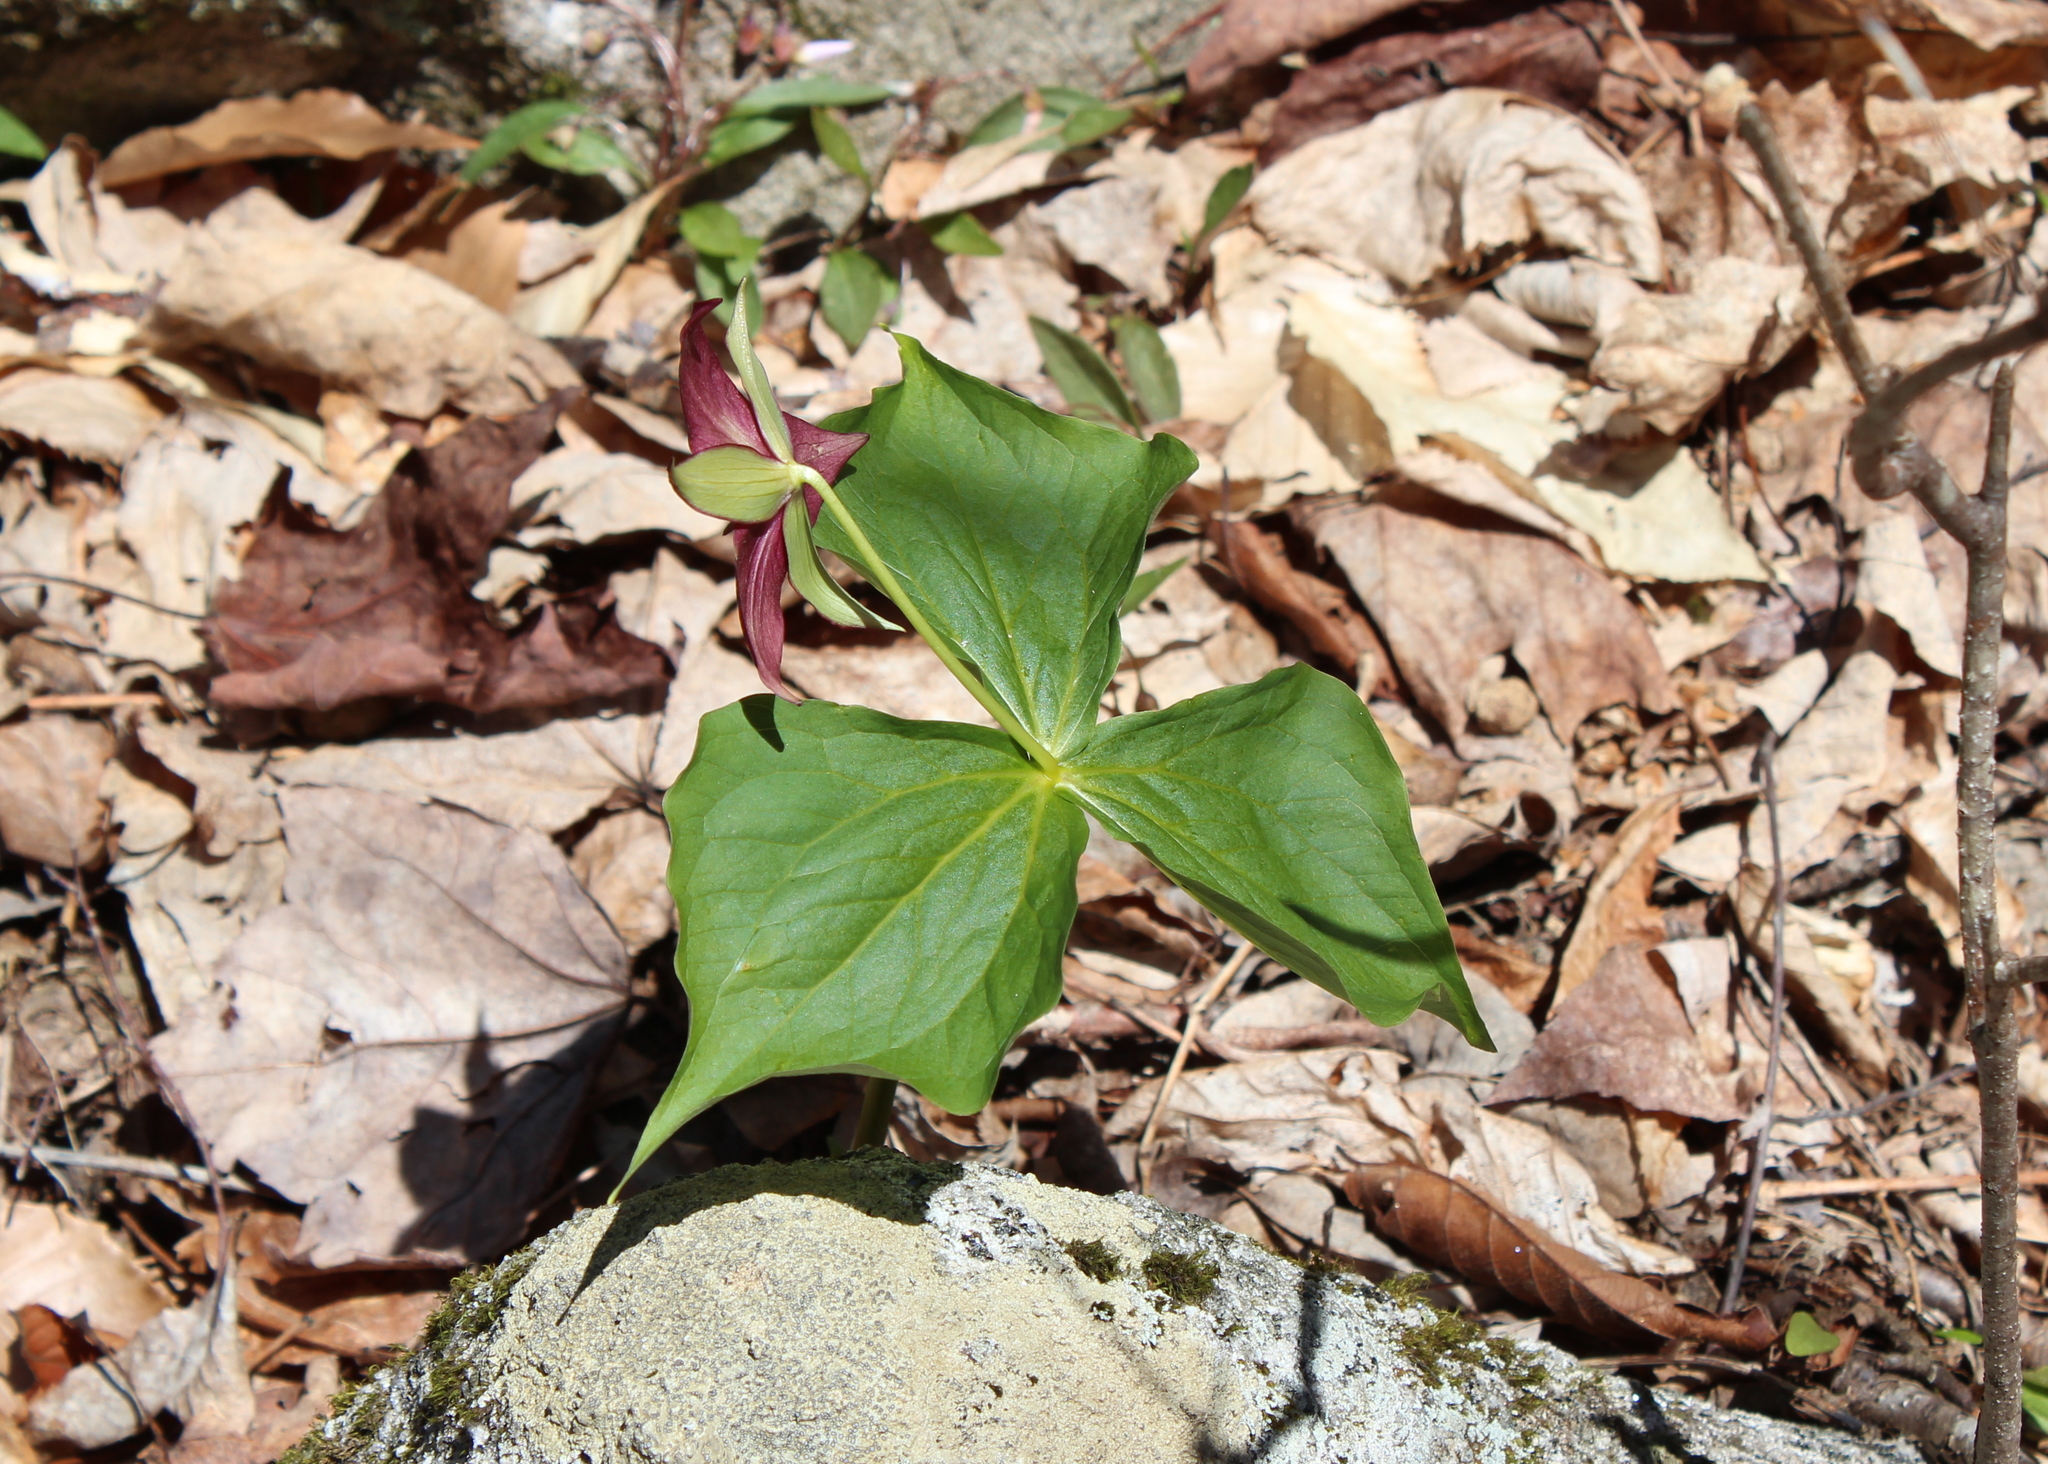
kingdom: Plantae
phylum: Tracheophyta
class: Liliopsida
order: Liliales
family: Melanthiaceae
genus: Trillium
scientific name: Trillium erectum
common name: Purple trillium
